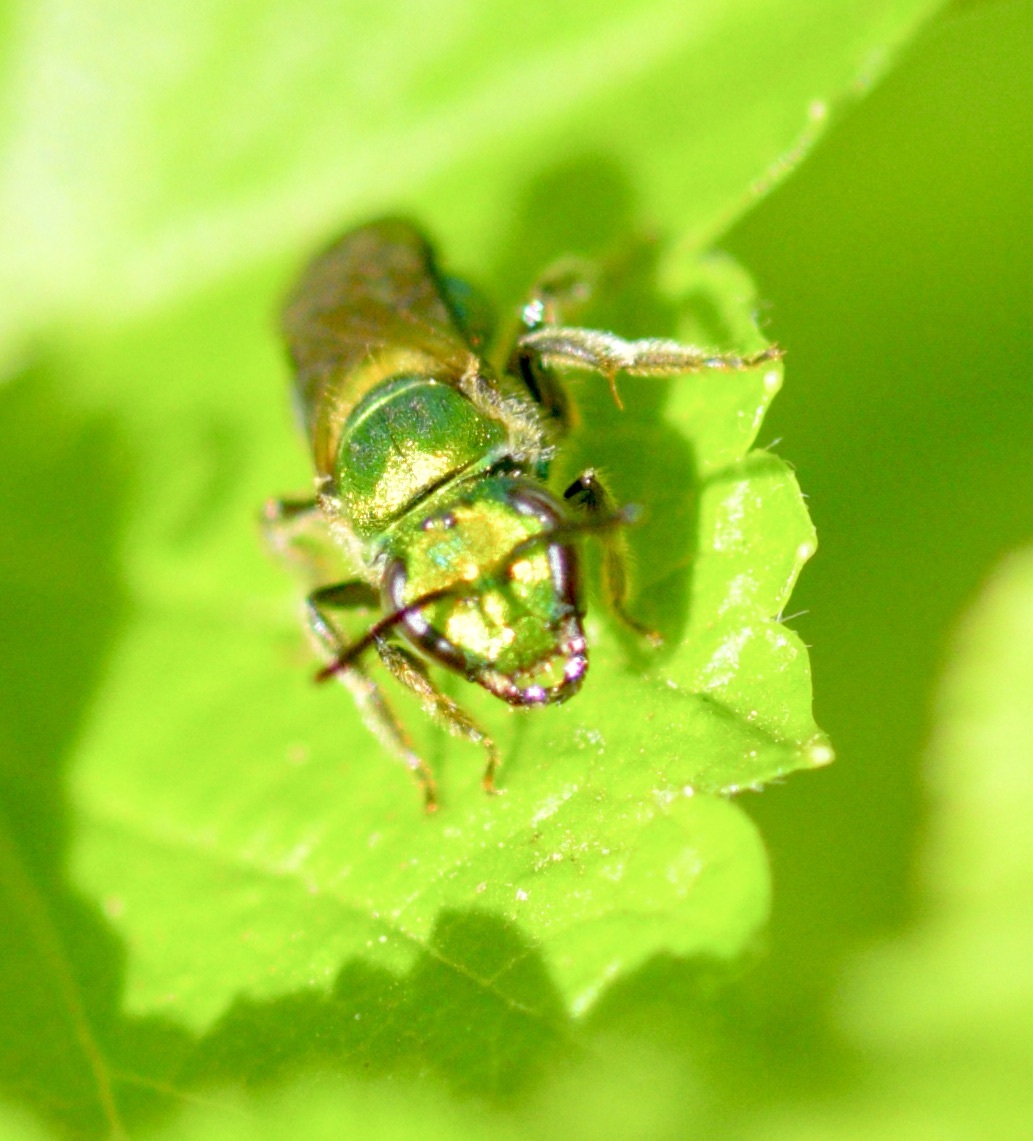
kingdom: Animalia
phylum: Arthropoda
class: Insecta
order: Hymenoptera
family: Halictidae
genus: Augochlora
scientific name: Augochlora pura
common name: Pure green sweat bee
